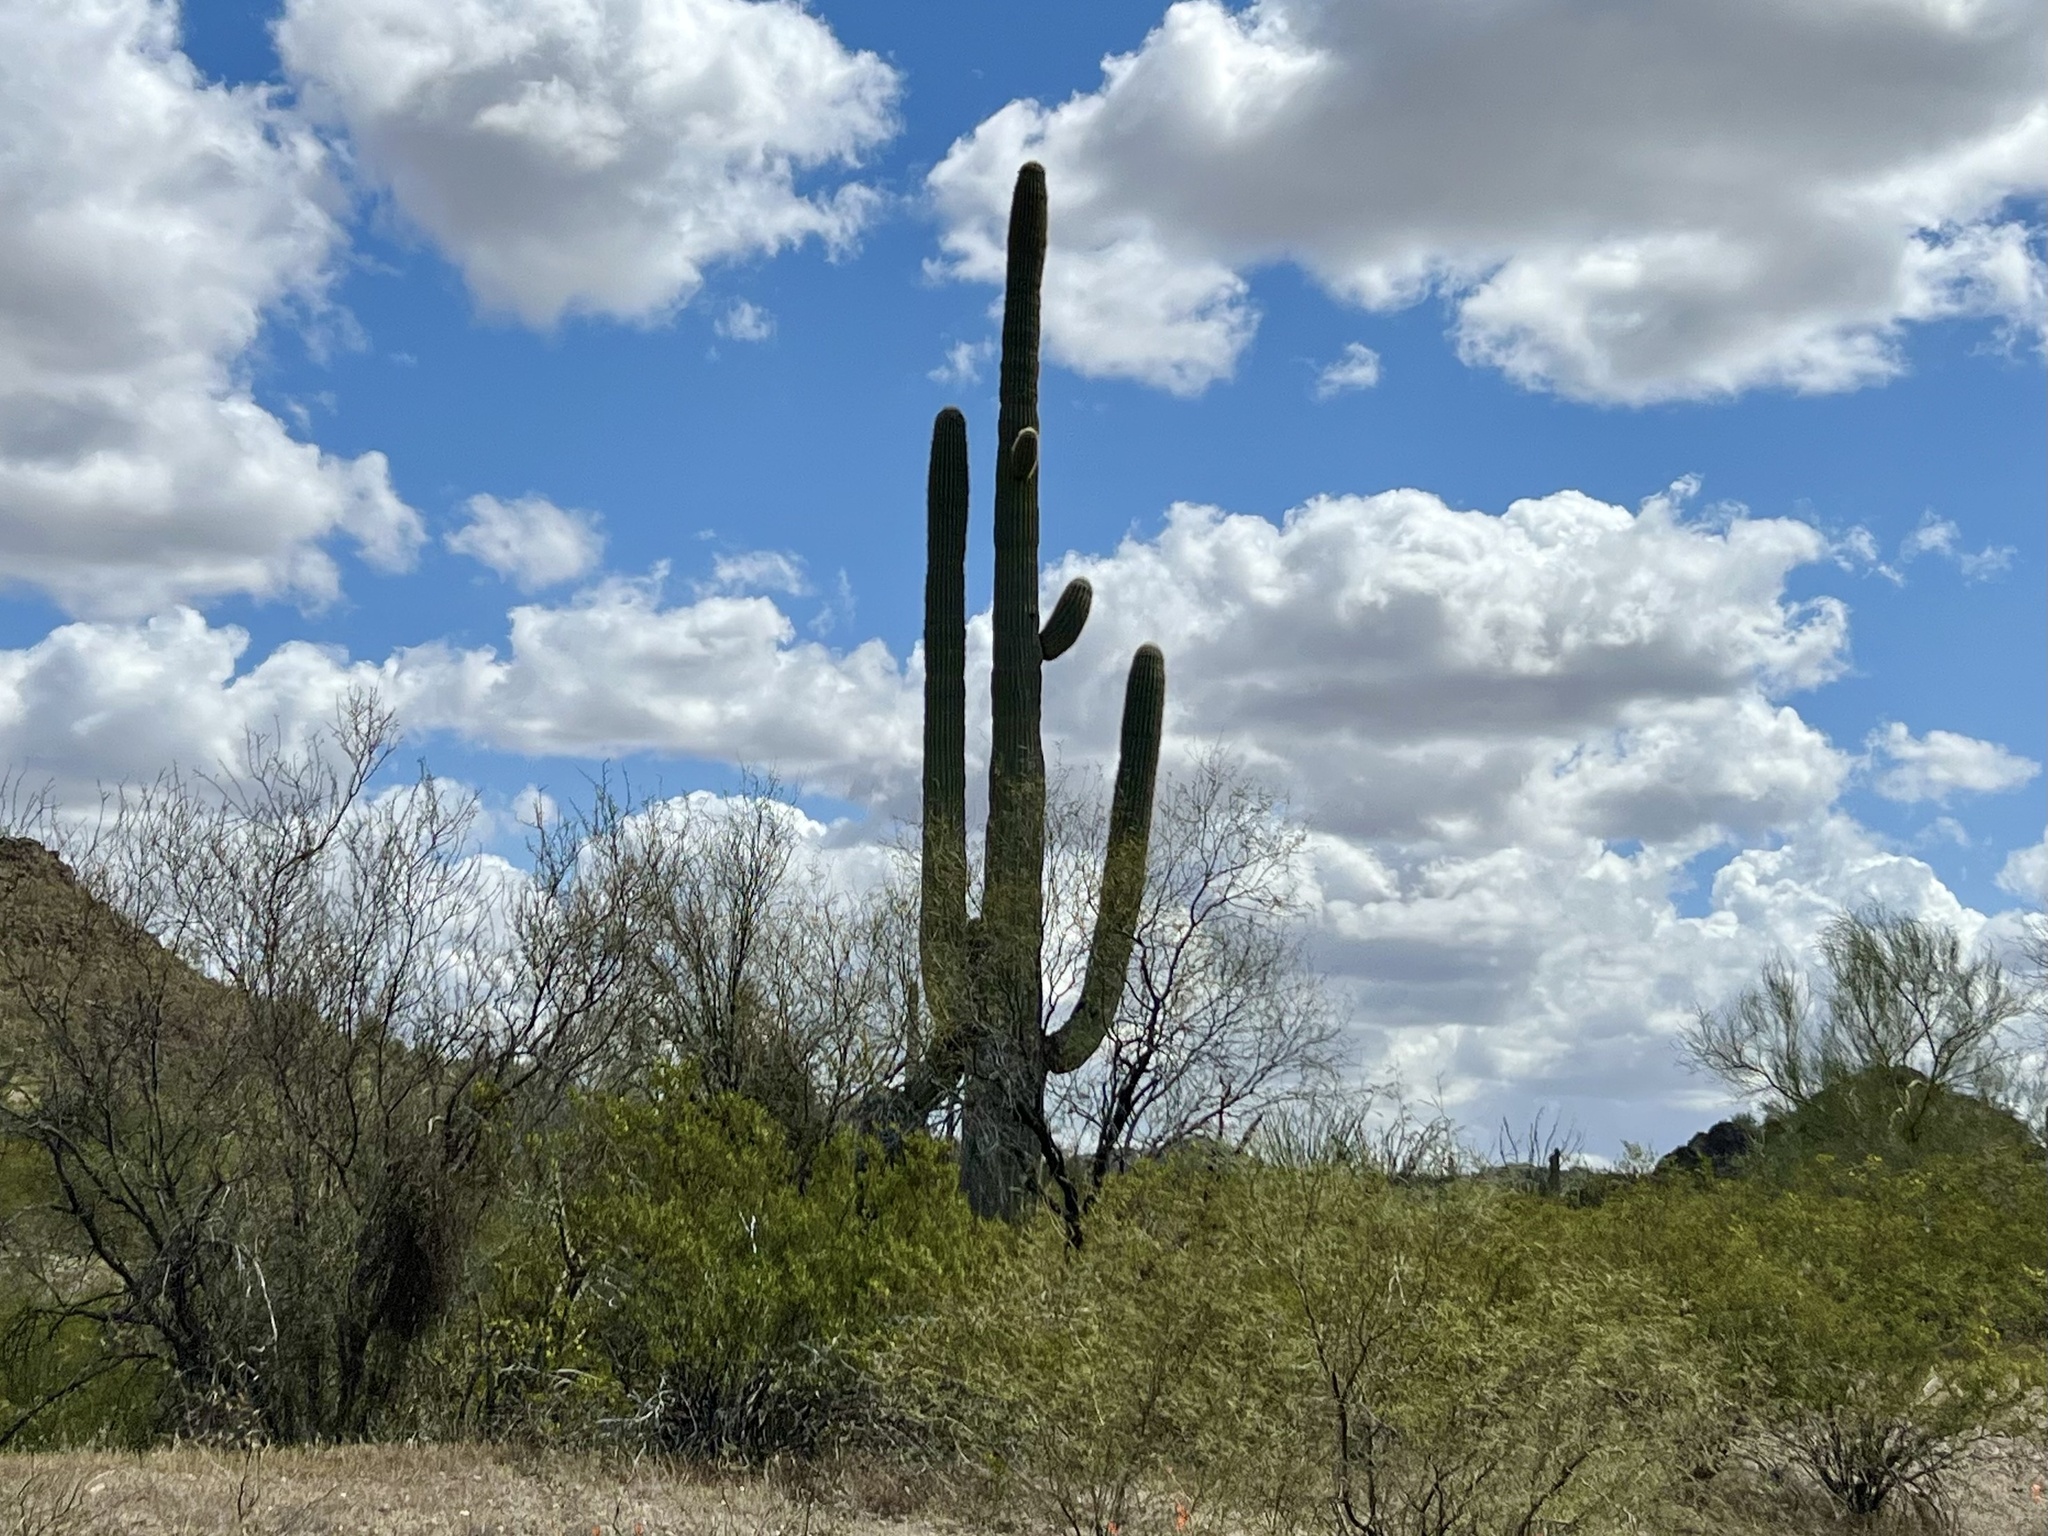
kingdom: Plantae
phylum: Tracheophyta
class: Magnoliopsida
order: Caryophyllales
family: Cactaceae
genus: Carnegiea
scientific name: Carnegiea gigantea
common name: Saguaro
